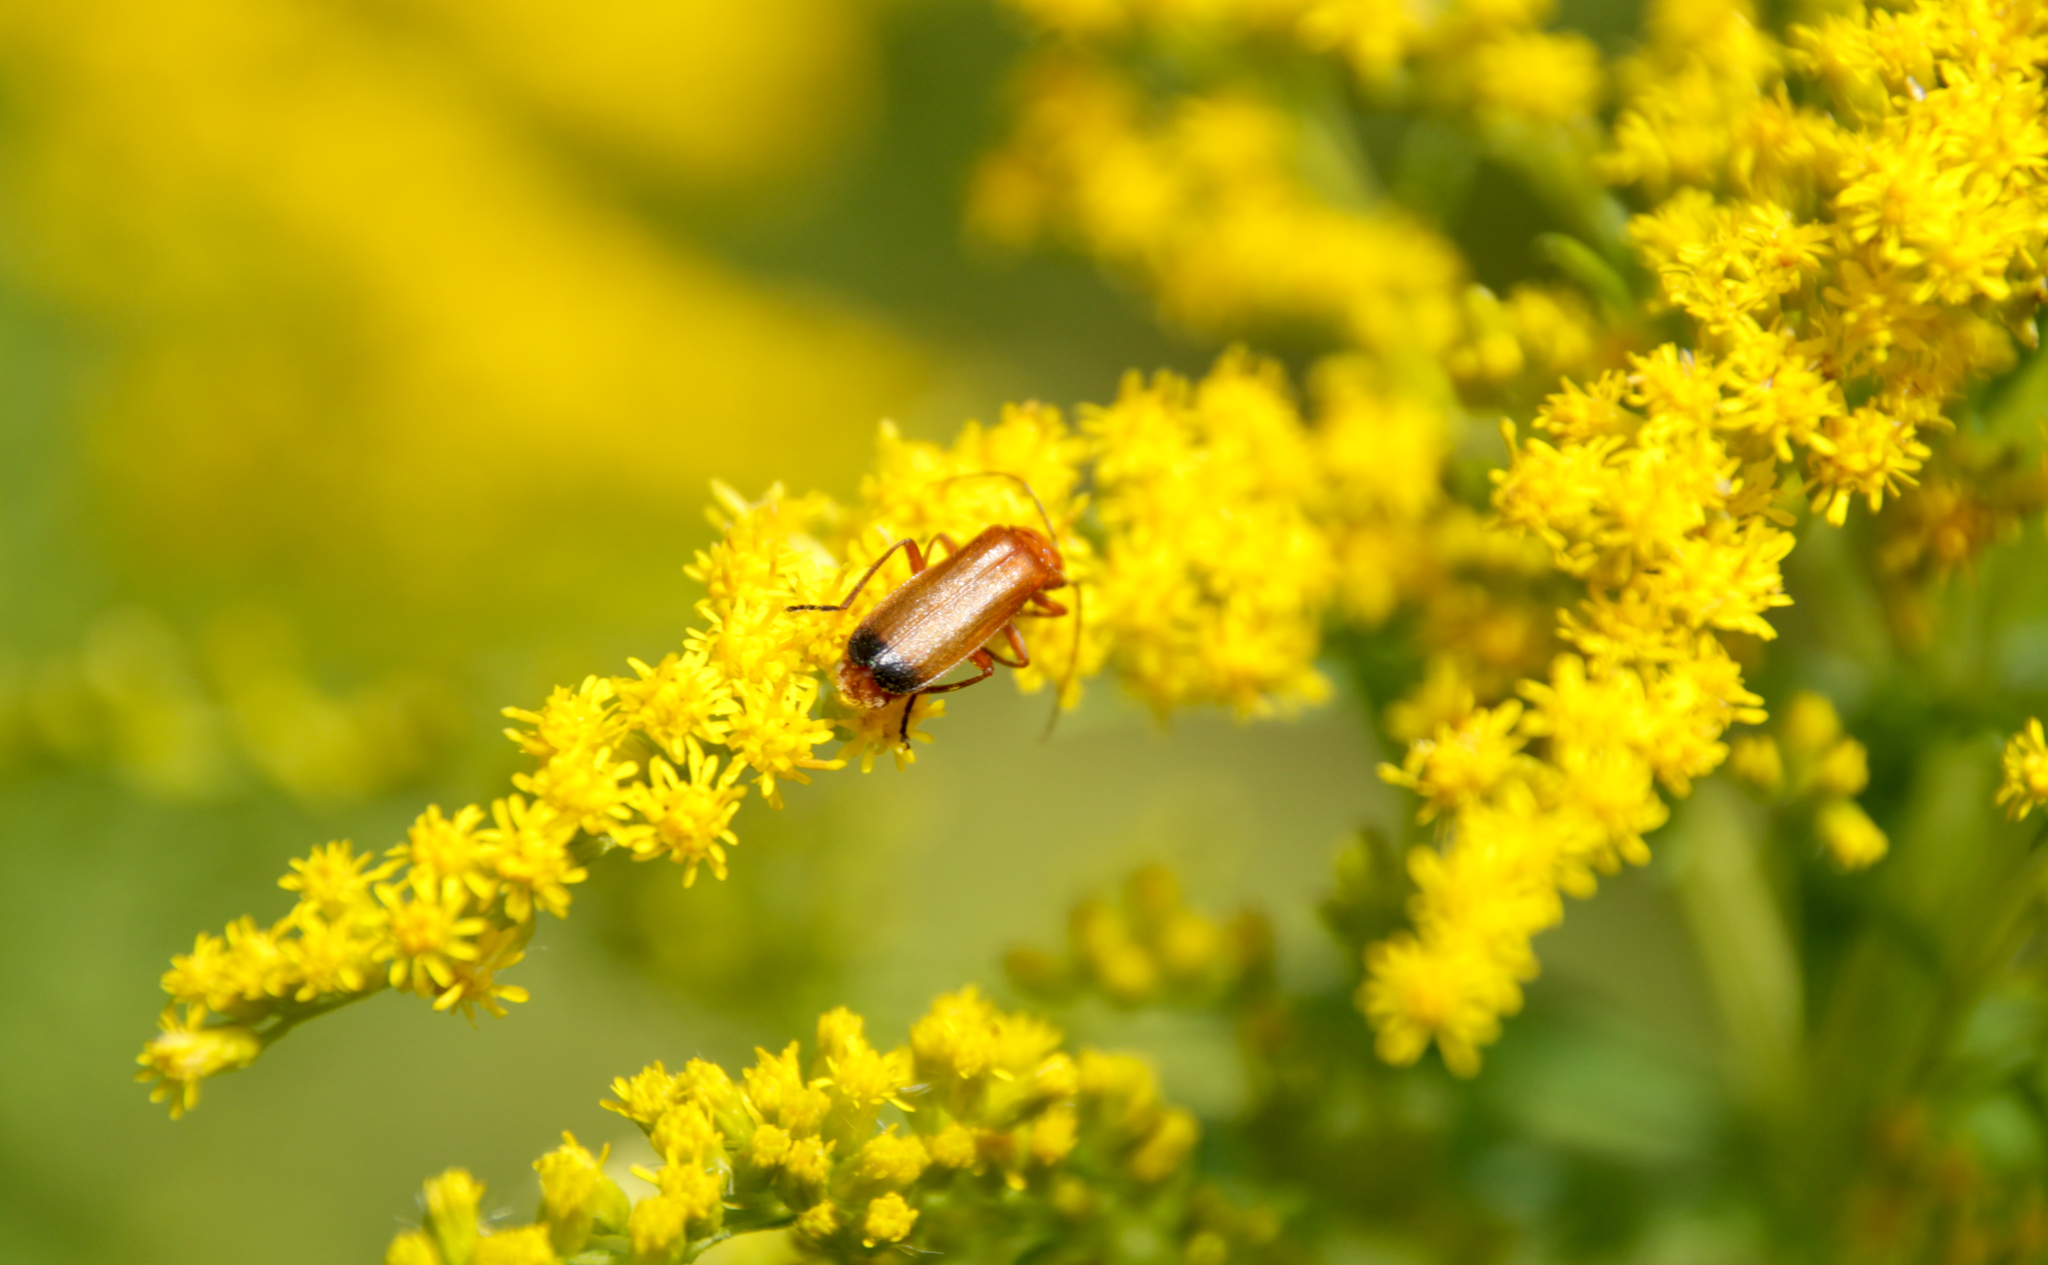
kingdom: Animalia
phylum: Arthropoda
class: Insecta
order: Coleoptera
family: Cantharidae
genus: Rhagonycha
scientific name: Rhagonycha fulva
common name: Common red soldier beetle
